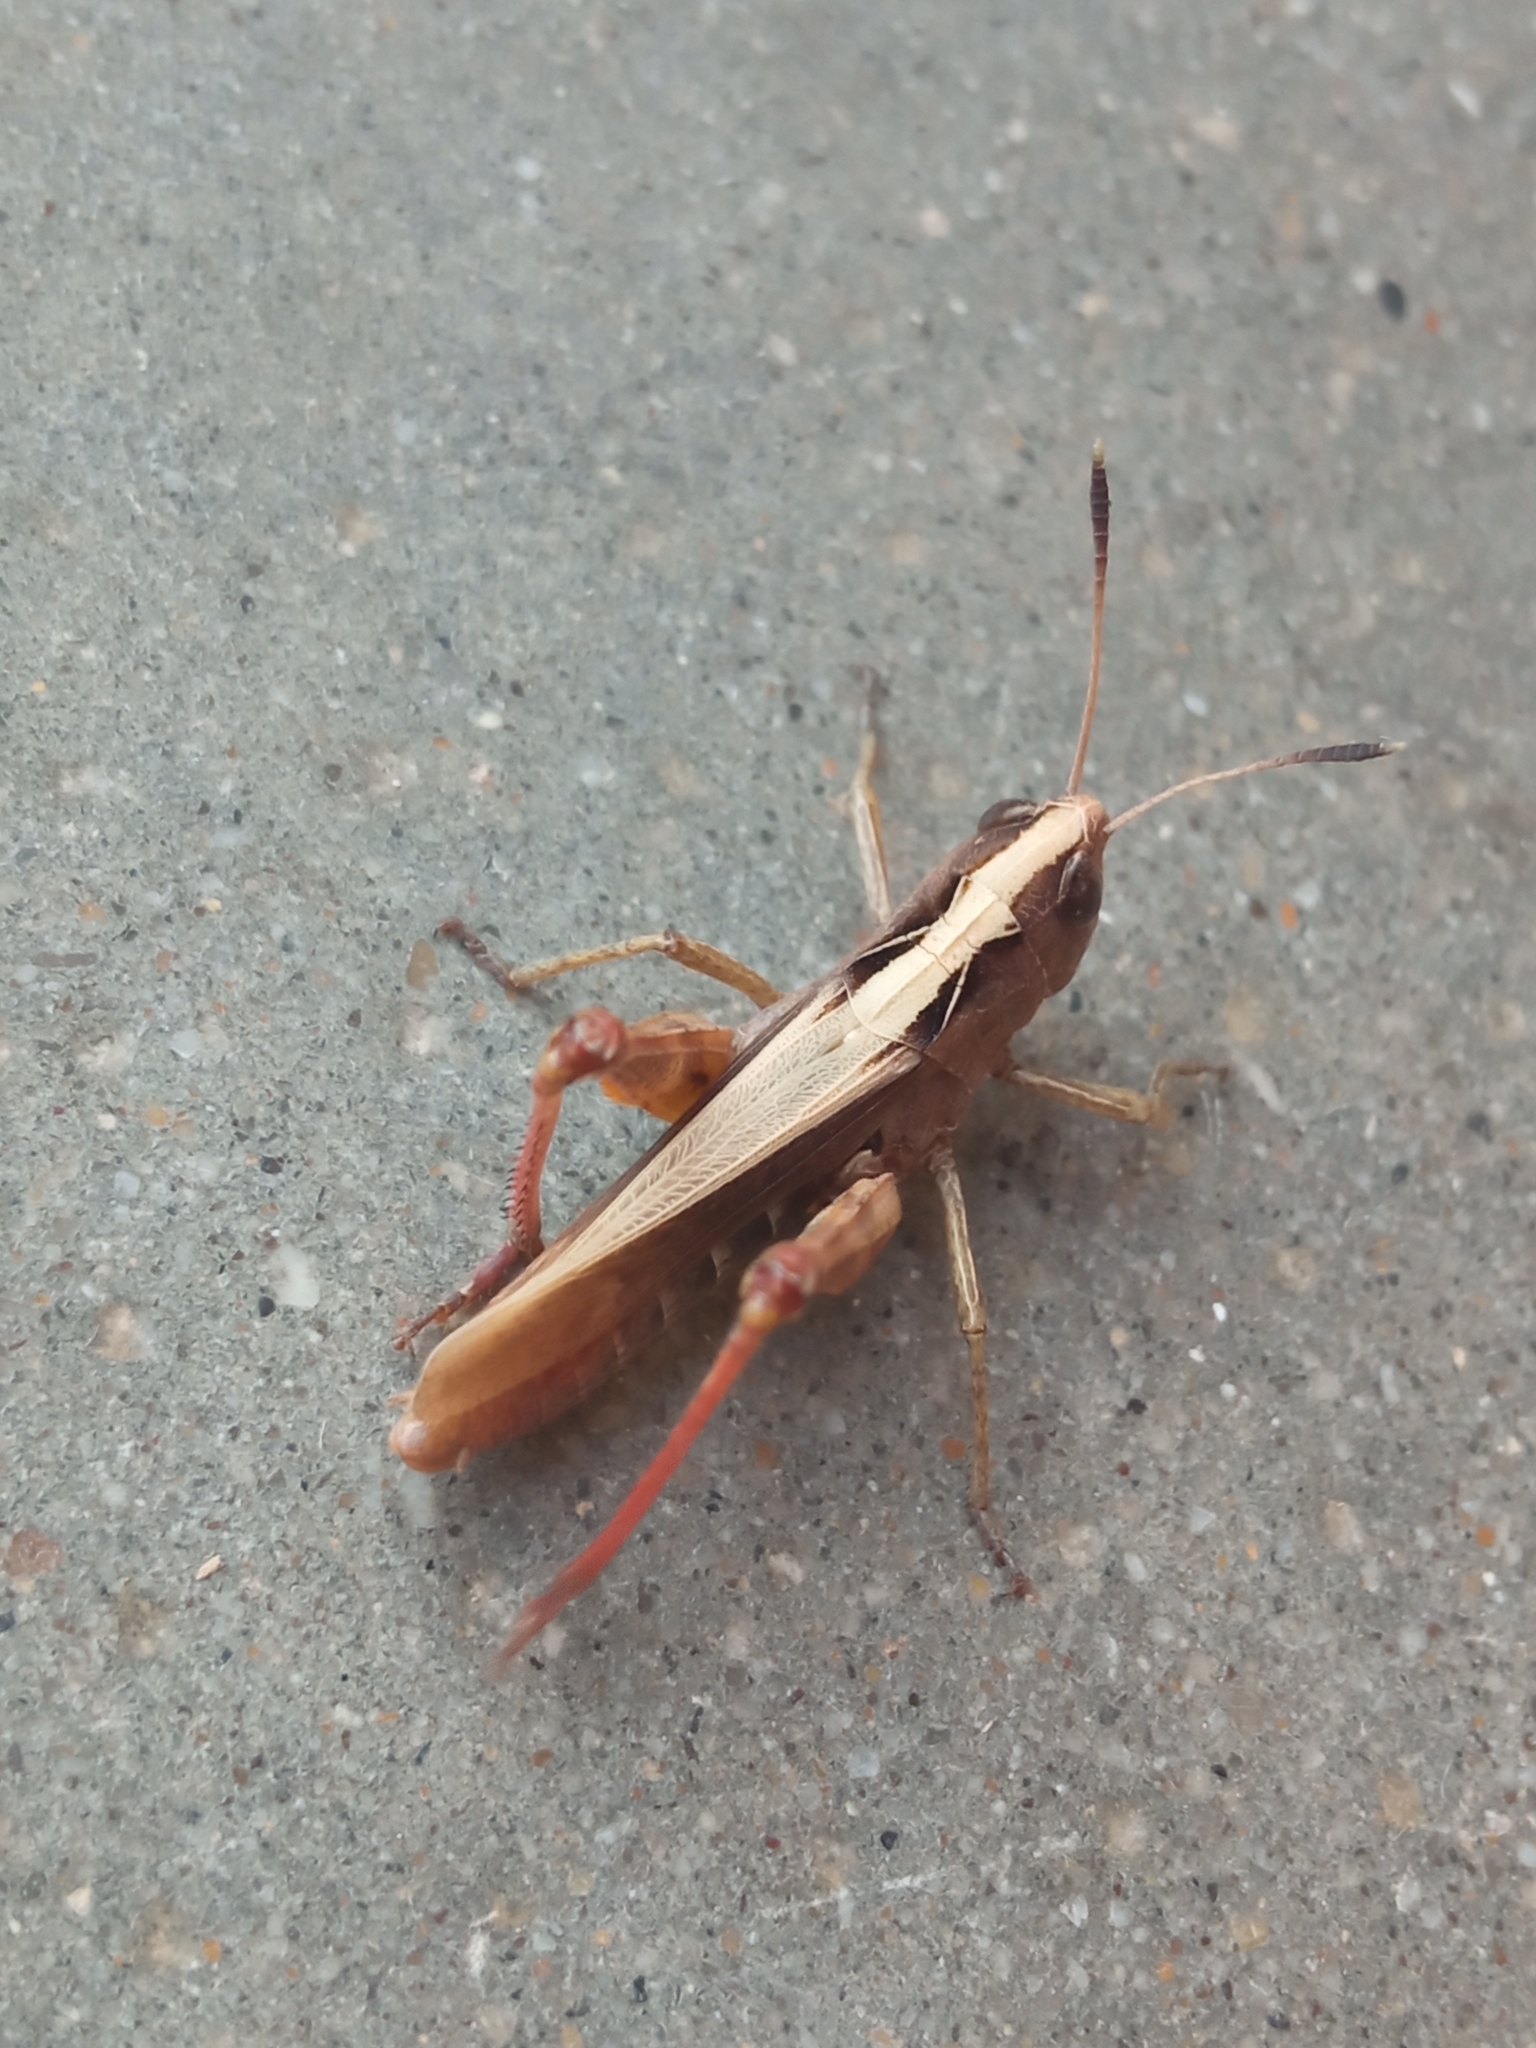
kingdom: Animalia
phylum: Arthropoda
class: Insecta
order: Orthoptera
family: Acrididae
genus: Gomphocerippus
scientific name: Gomphocerippus rufus
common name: Rufous grasshopper
